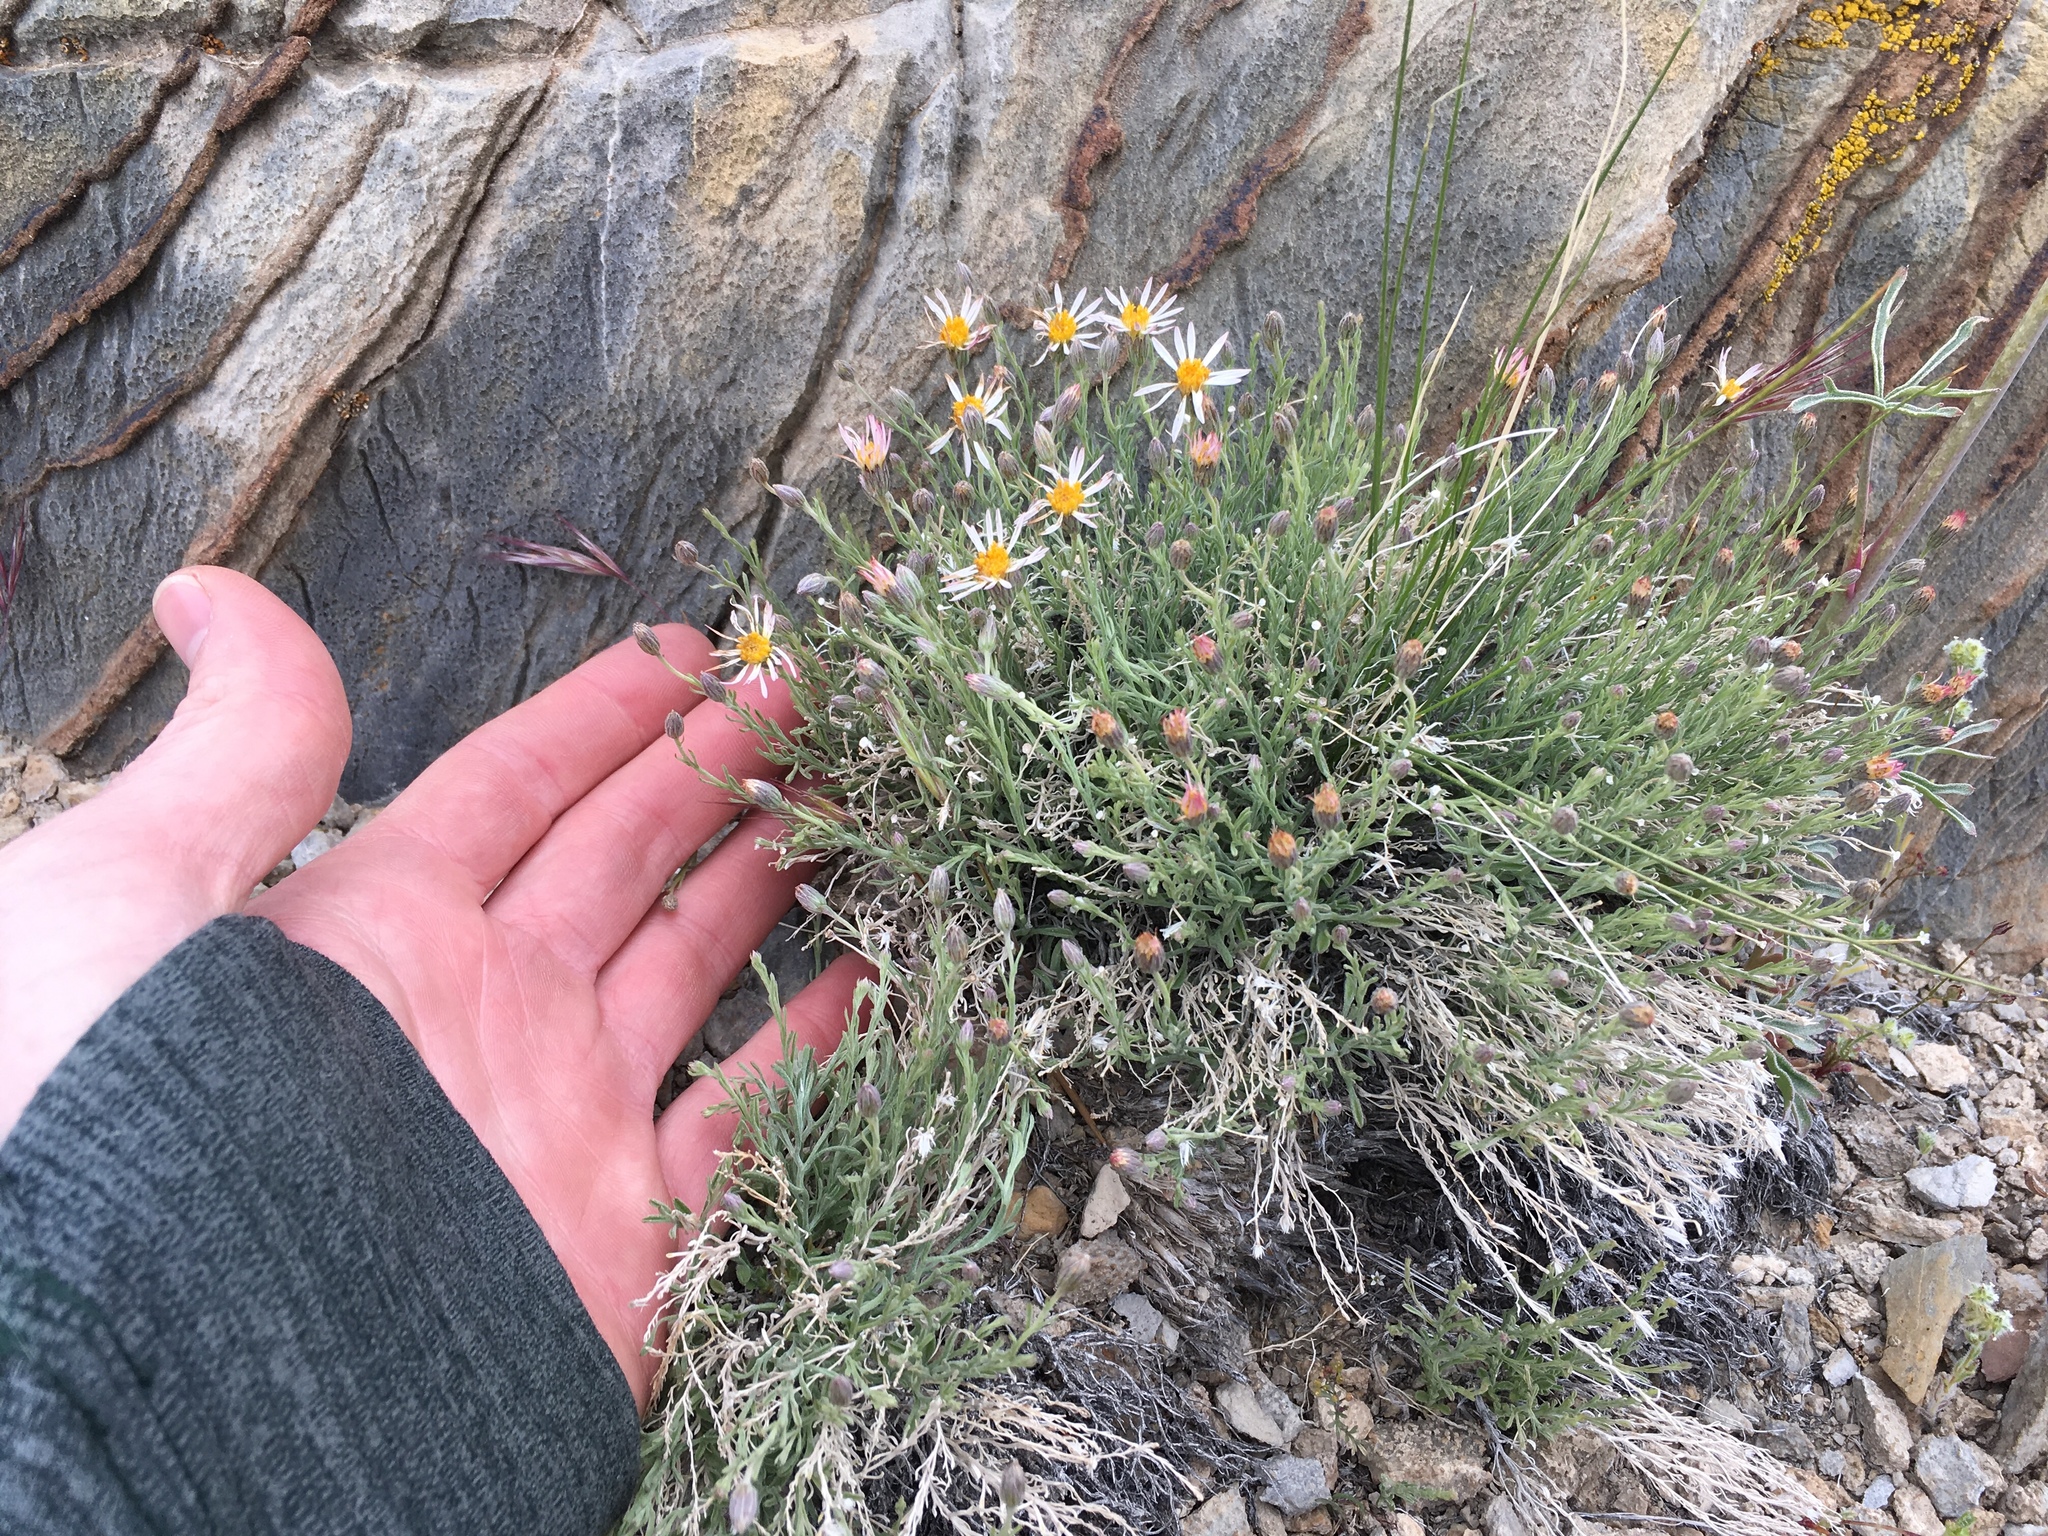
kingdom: Plantae
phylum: Tracheophyta
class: Magnoliopsida
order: Asterales
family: Asteraceae
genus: Chaetopappa
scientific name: Chaetopappa ericoides
